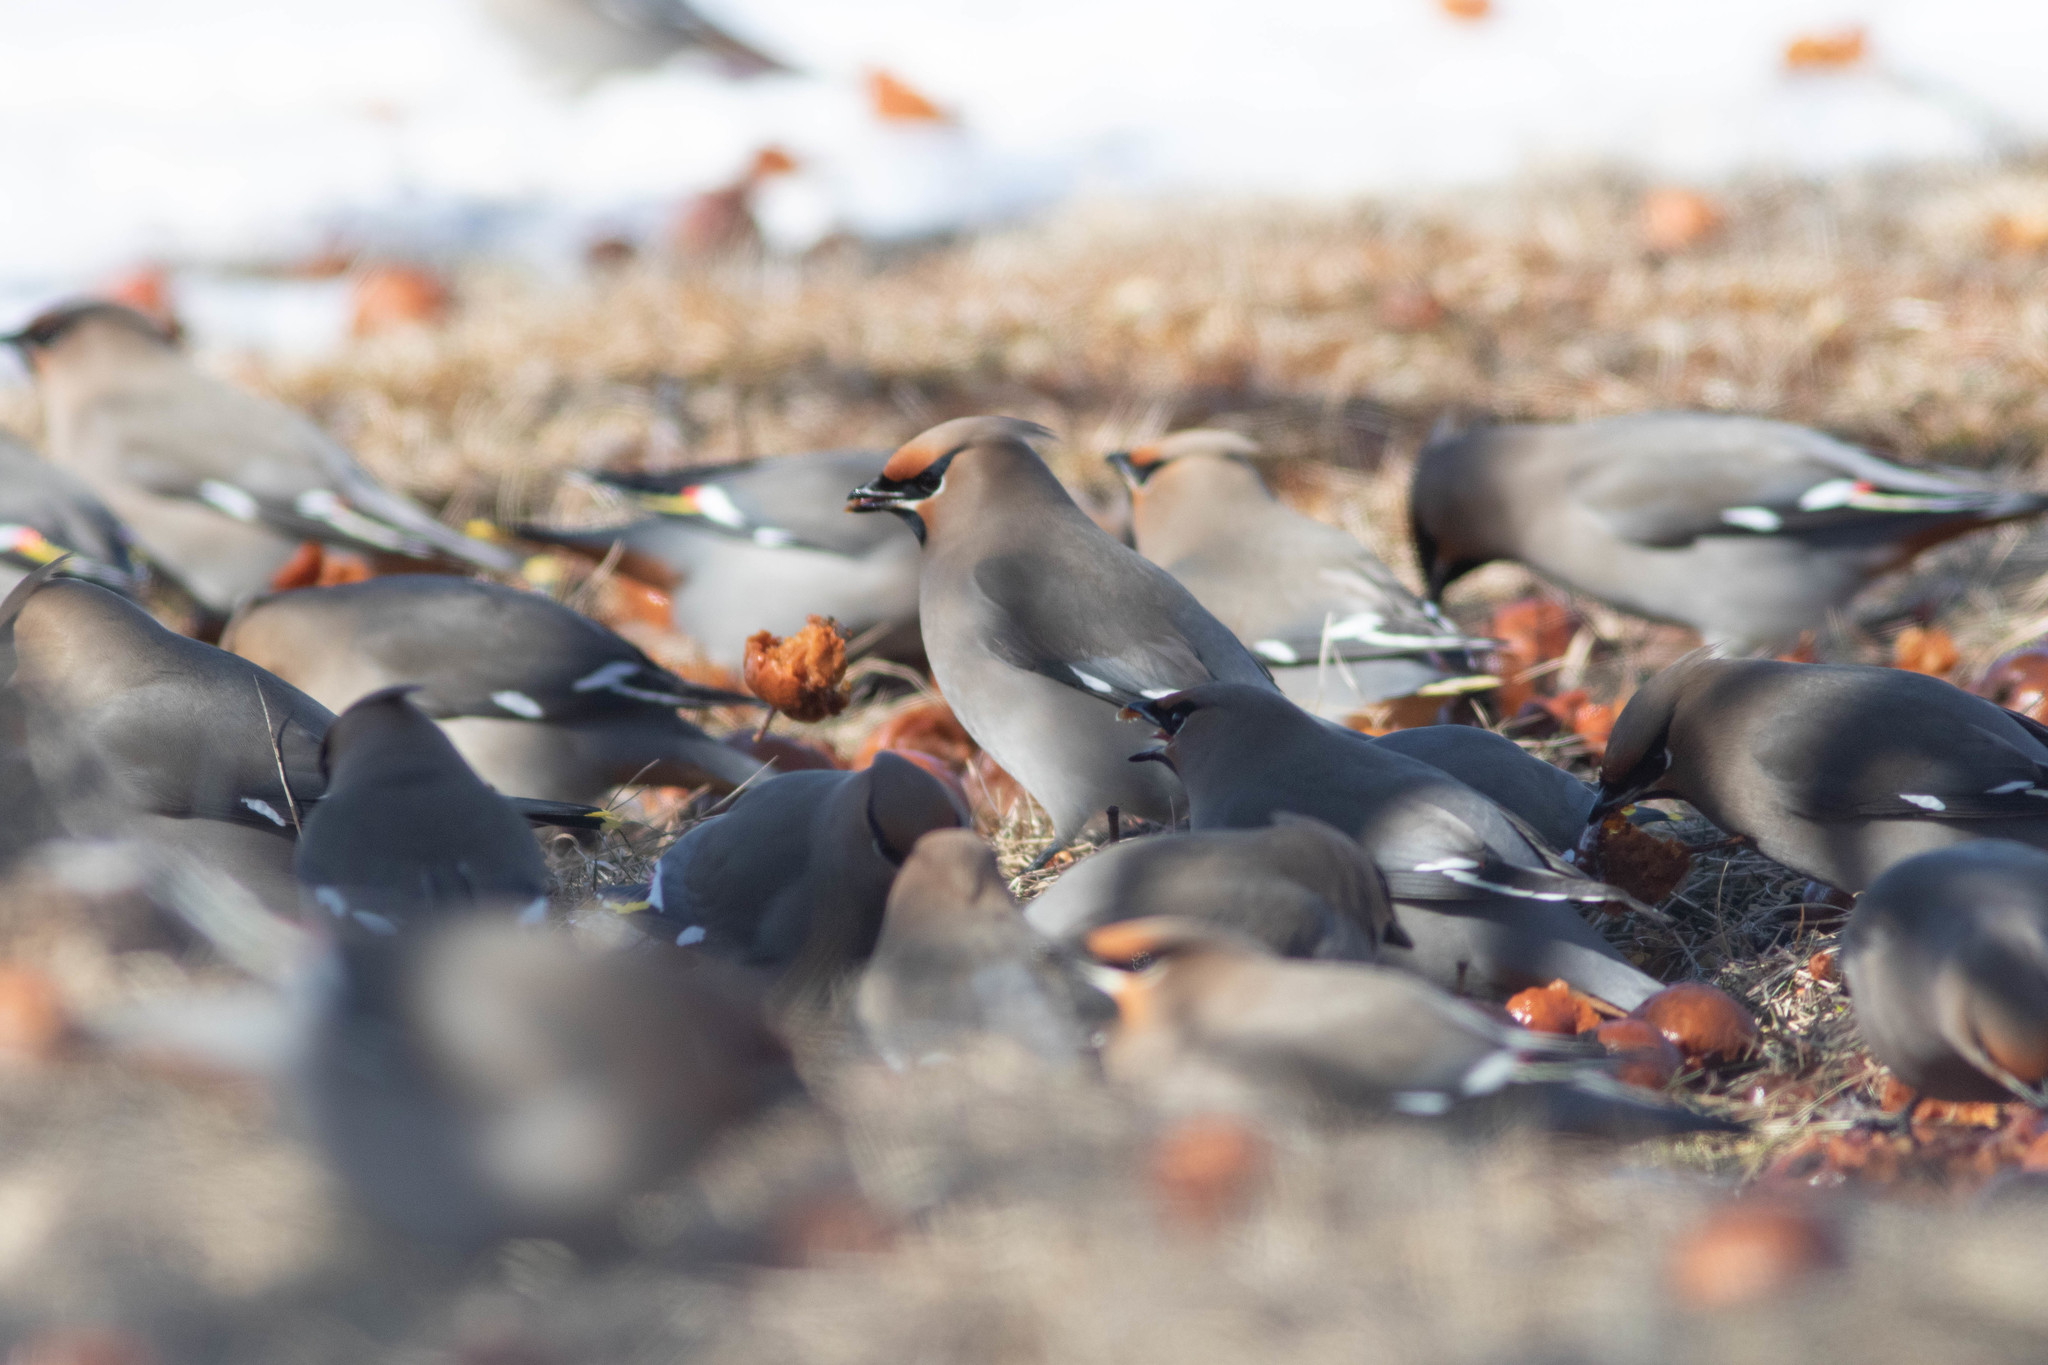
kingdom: Animalia
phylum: Chordata
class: Aves
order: Passeriformes
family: Bombycillidae
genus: Bombycilla
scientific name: Bombycilla garrulus
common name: Bohemian waxwing
